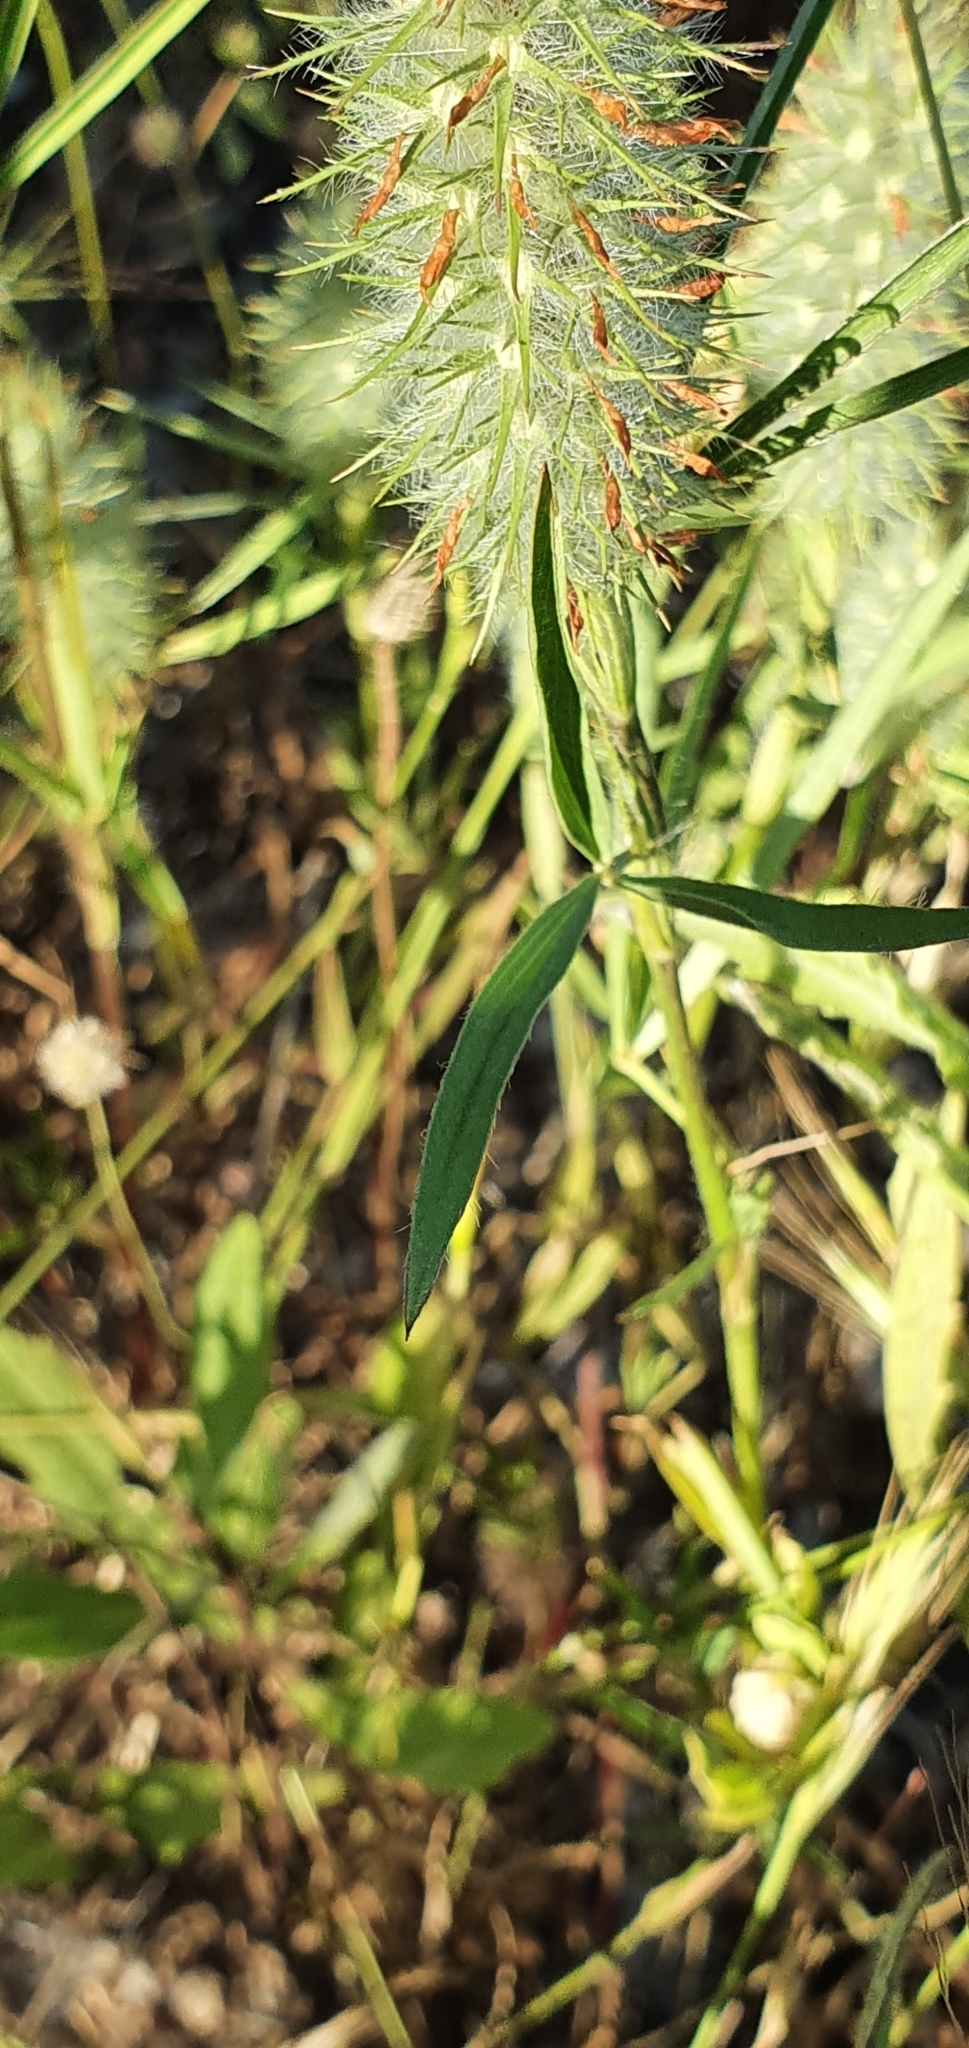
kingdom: Plantae
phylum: Tracheophyta
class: Magnoliopsida
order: Fabales
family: Fabaceae
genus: Trifolium
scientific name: Trifolium angustifolium
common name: Narrow clover
